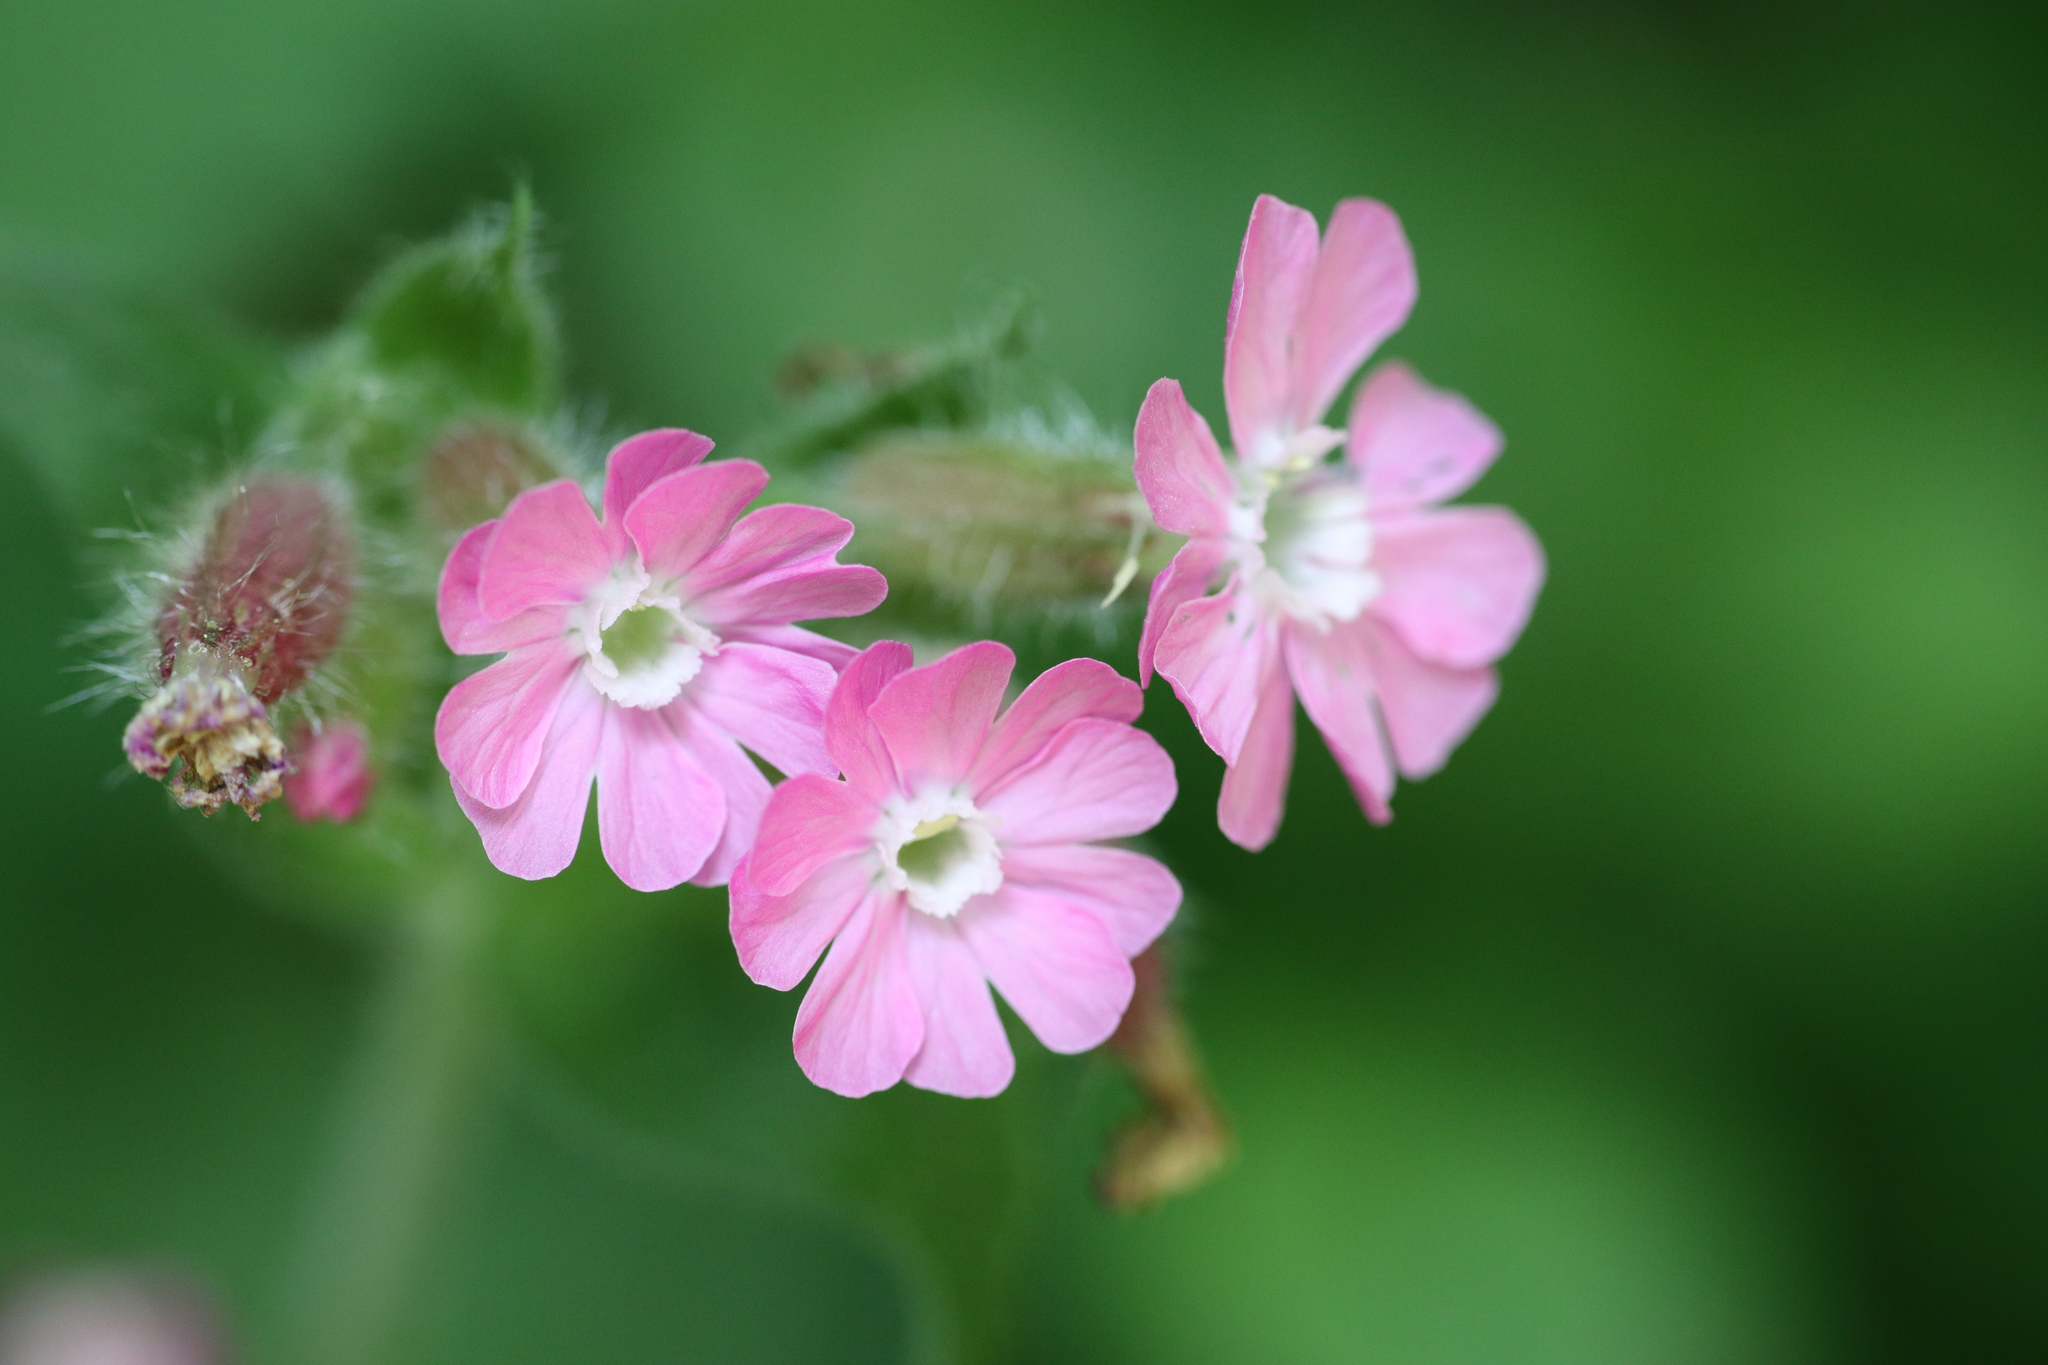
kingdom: Plantae
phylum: Tracheophyta
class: Magnoliopsida
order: Caryophyllales
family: Caryophyllaceae
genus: Silene
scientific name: Silene dioica
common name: Red campion
